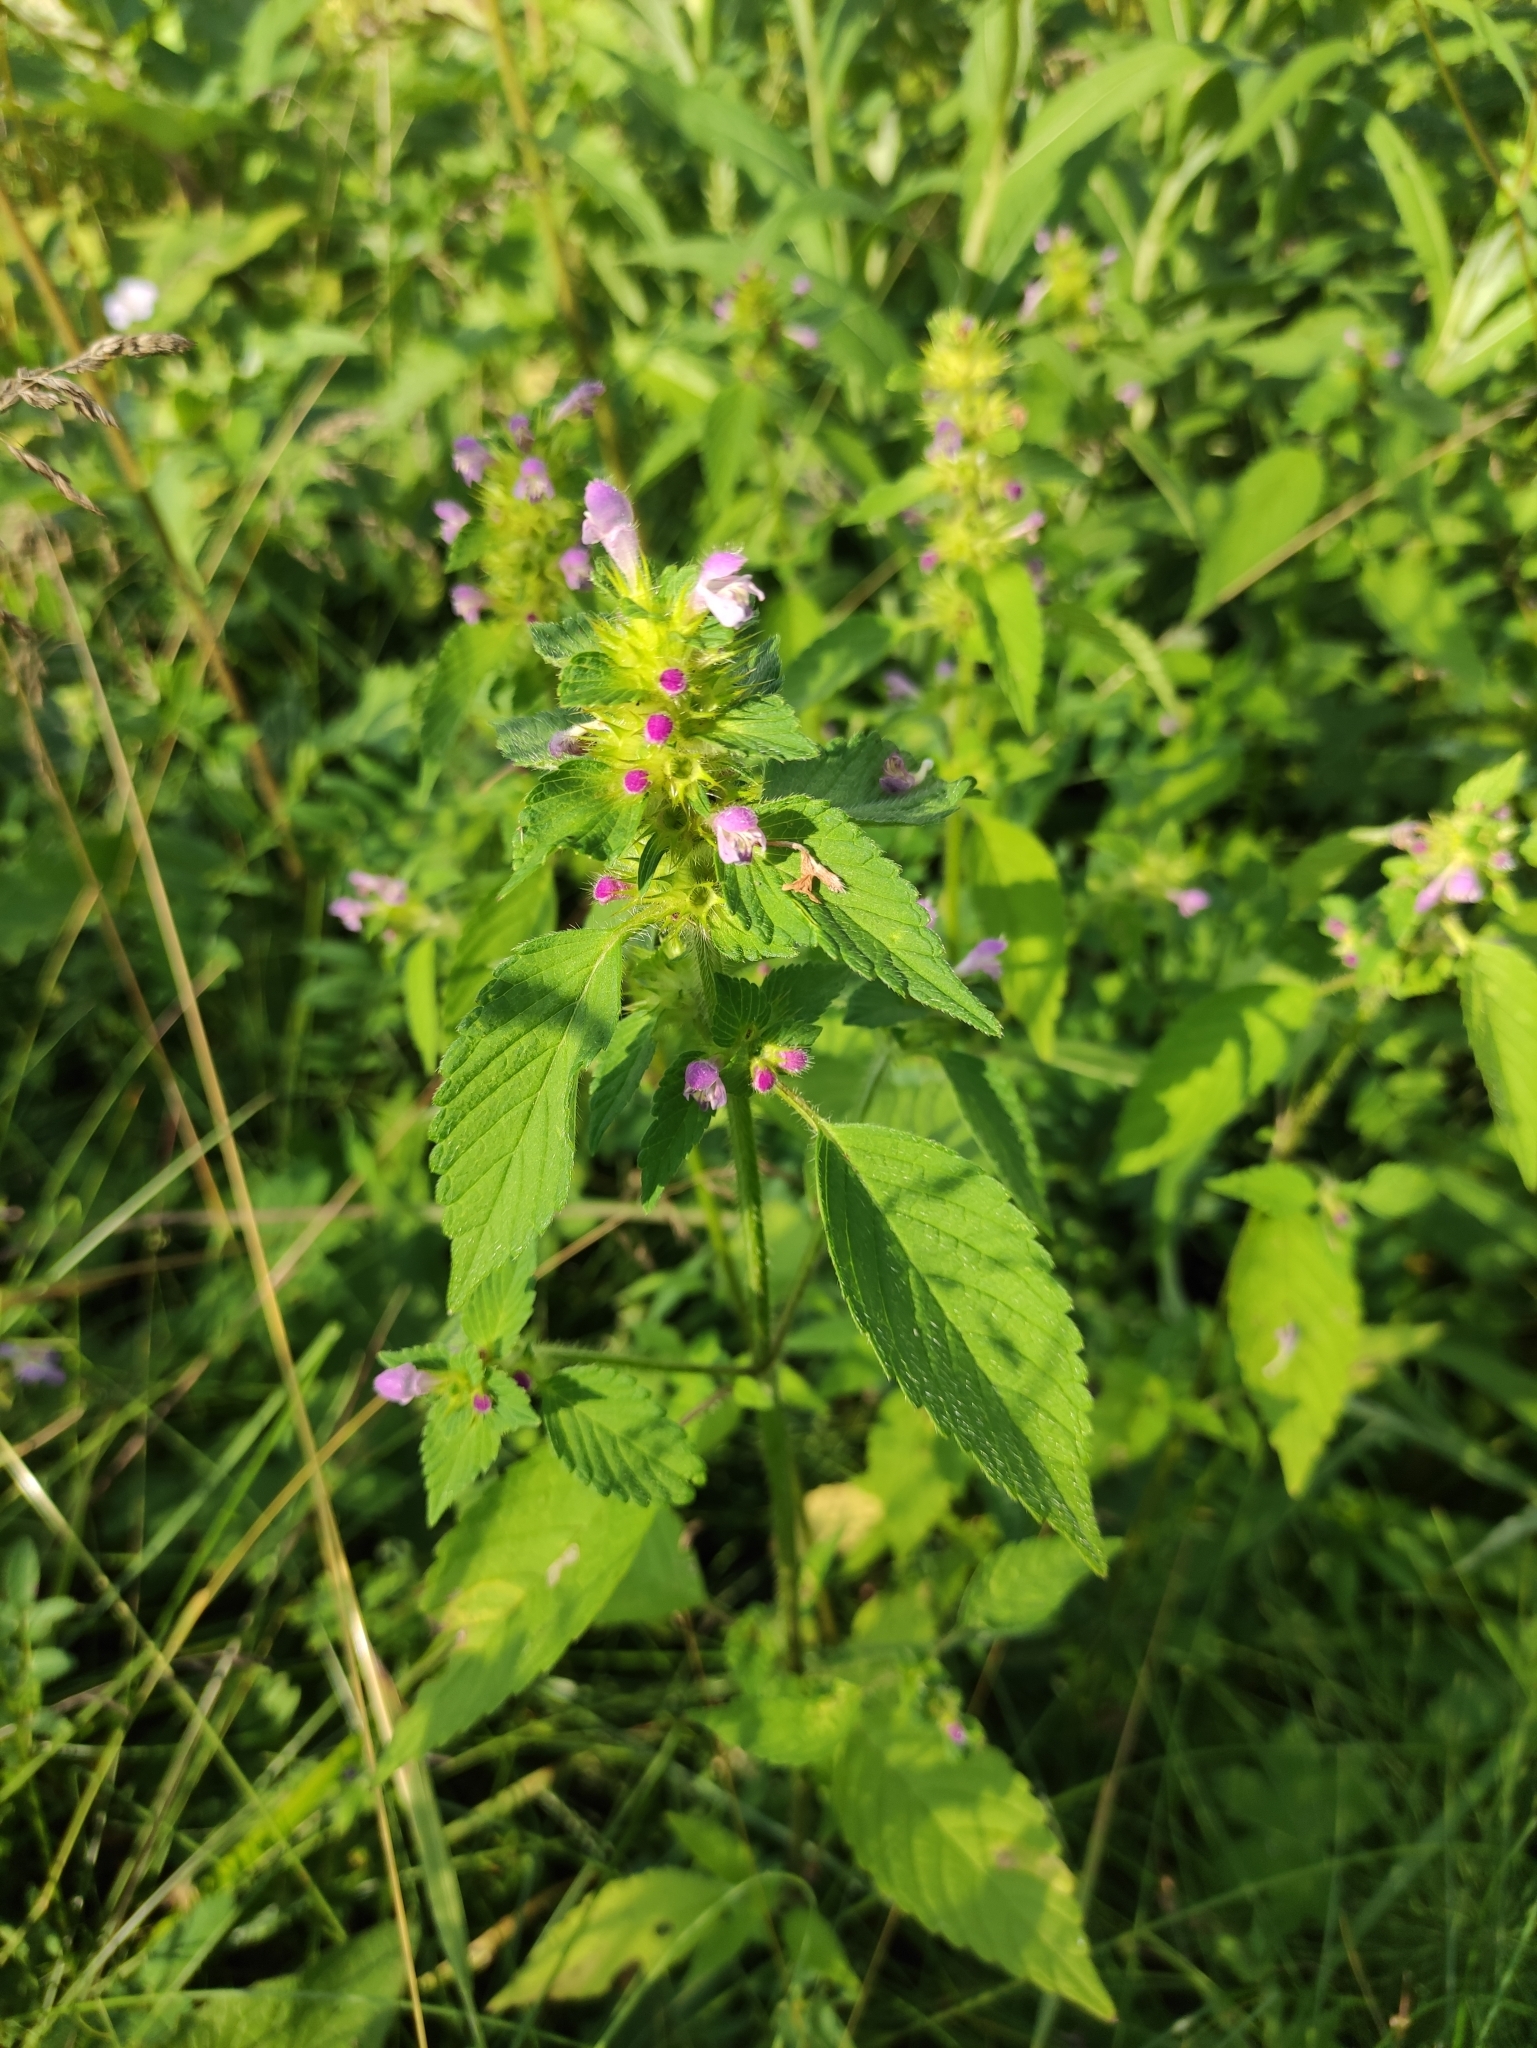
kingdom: Plantae
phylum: Tracheophyta
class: Magnoliopsida
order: Lamiales
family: Lamiaceae
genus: Galeopsis
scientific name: Galeopsis bifida
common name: Bifid hemp-nettle
